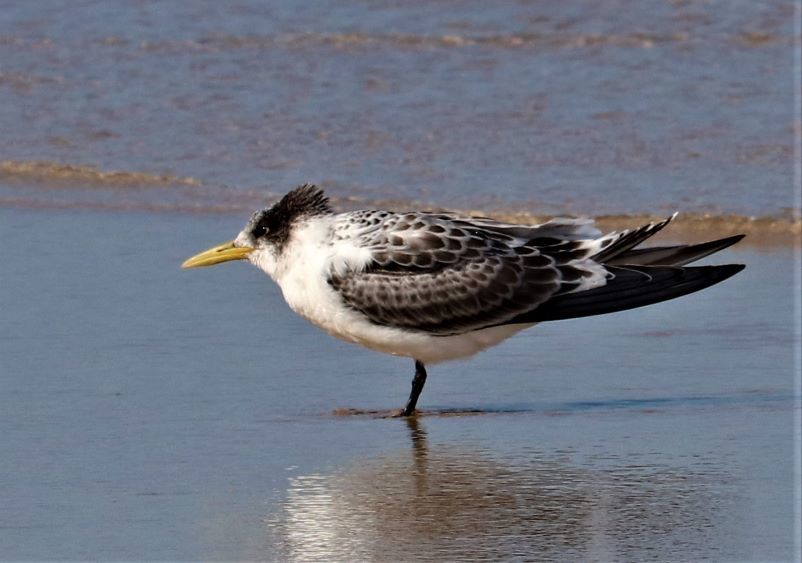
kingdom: Animalia
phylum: Chordata
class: Aves
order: Charadriiformes
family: Laridae
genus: Thalasseus
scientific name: Thalasseus bergii
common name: Greater crested tern
